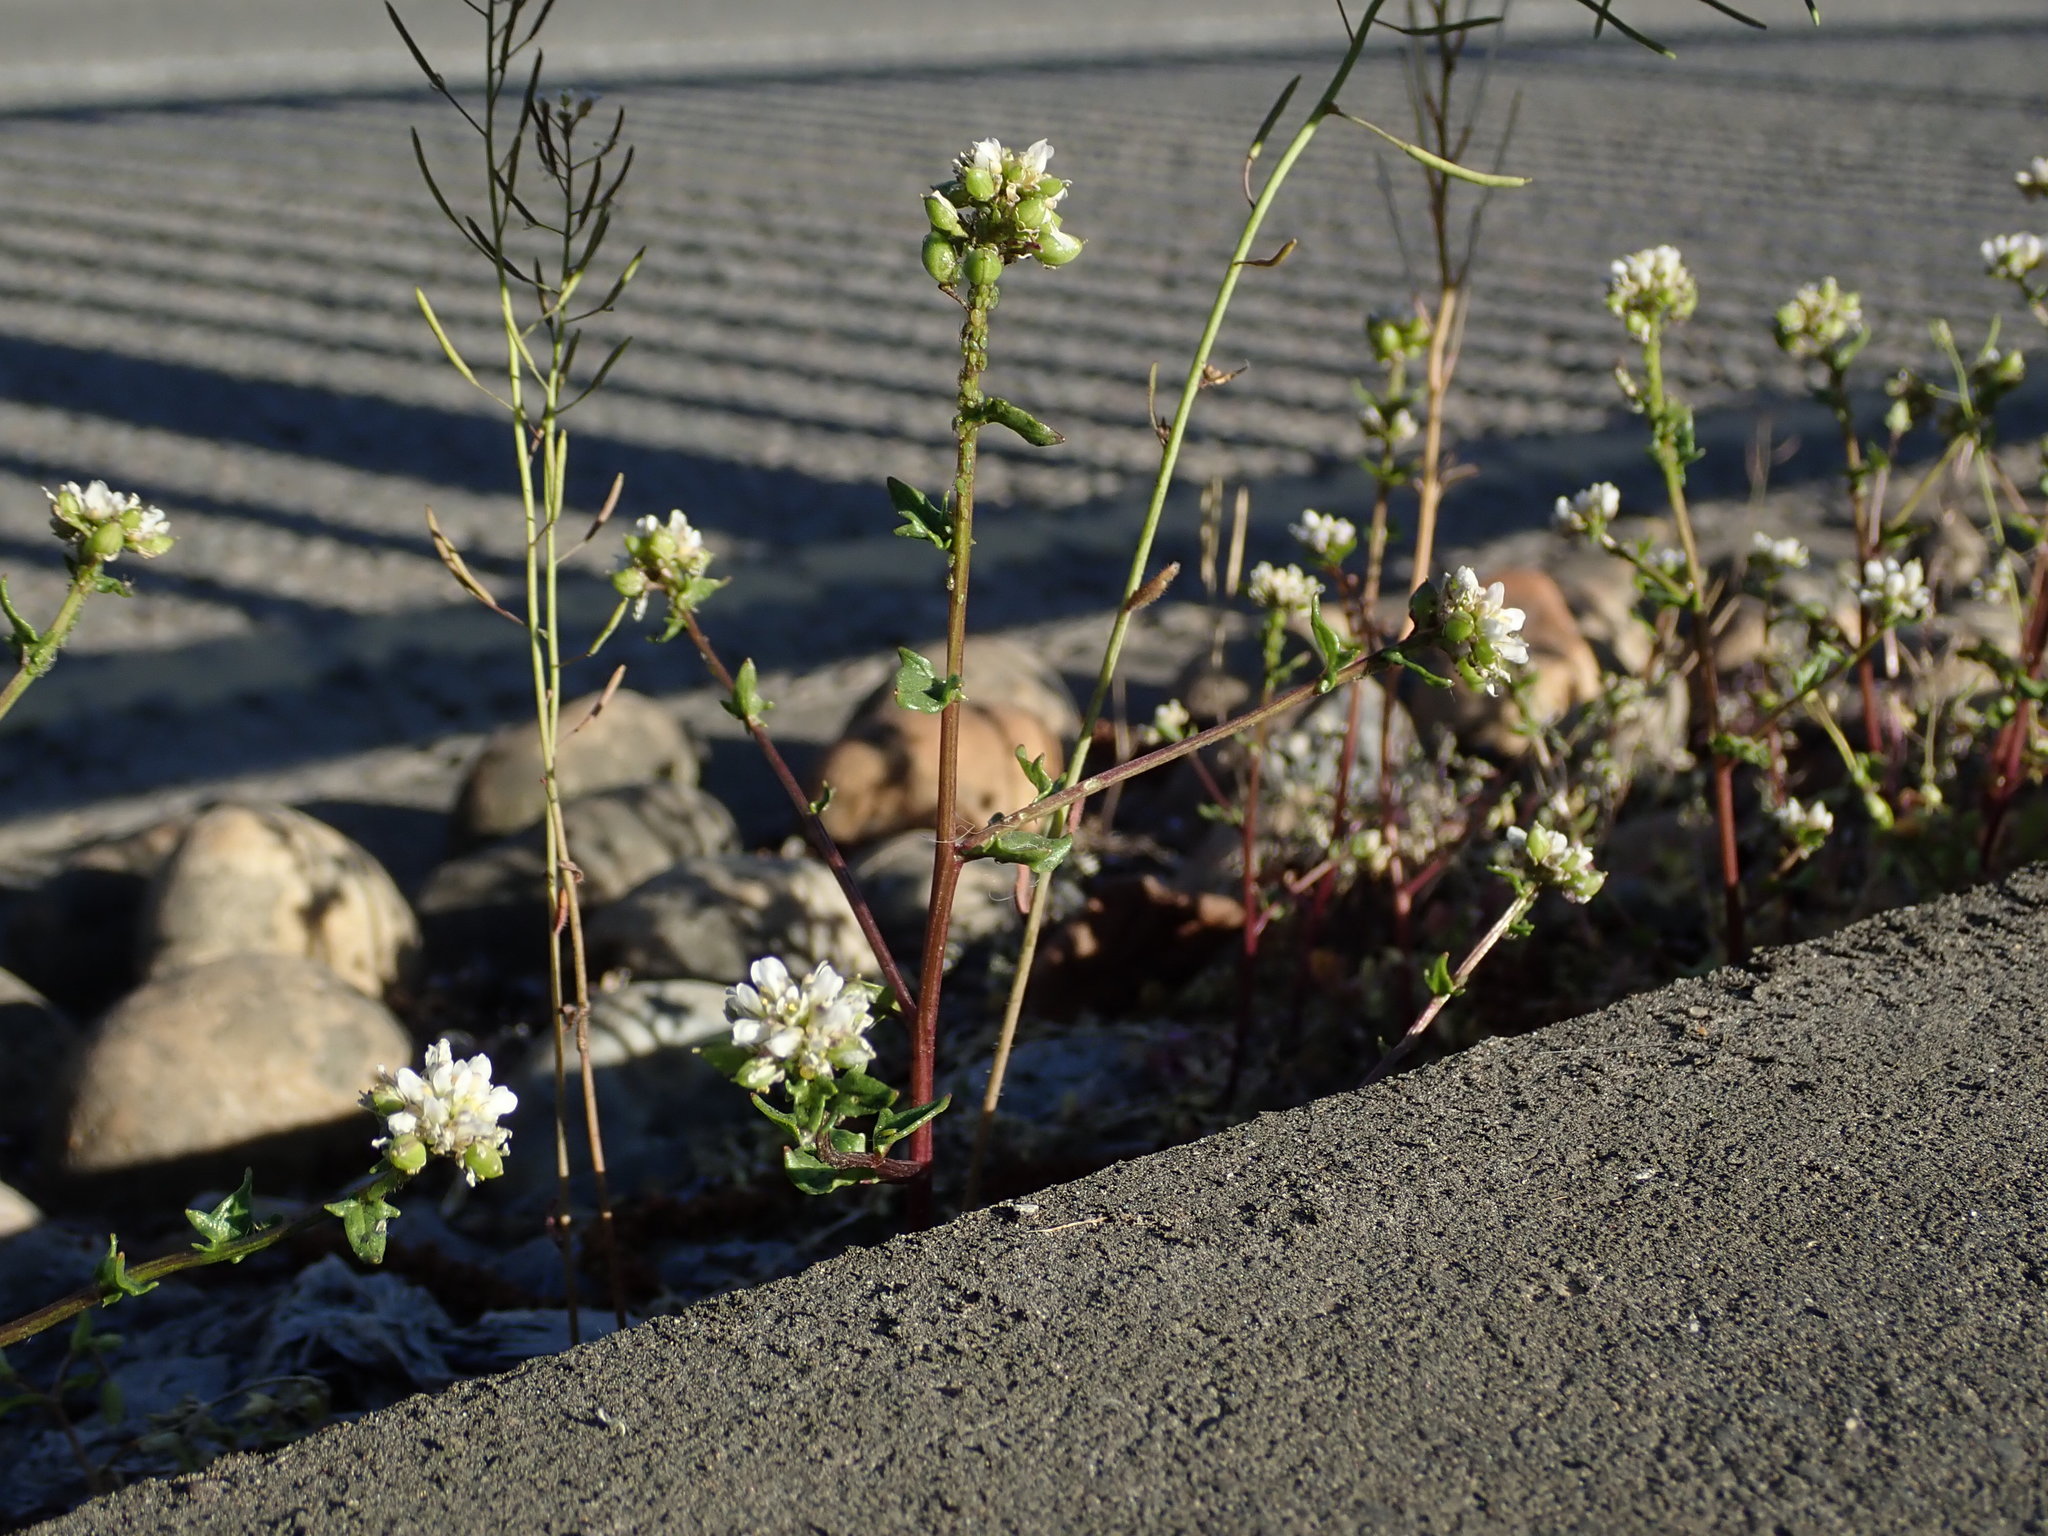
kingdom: Plantae
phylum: Tracheophyta
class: Magnoliopsida
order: Brassicales
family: Brassicaceae
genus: Cochlearia
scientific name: Cochlearia danica
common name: Early scurvygrass
